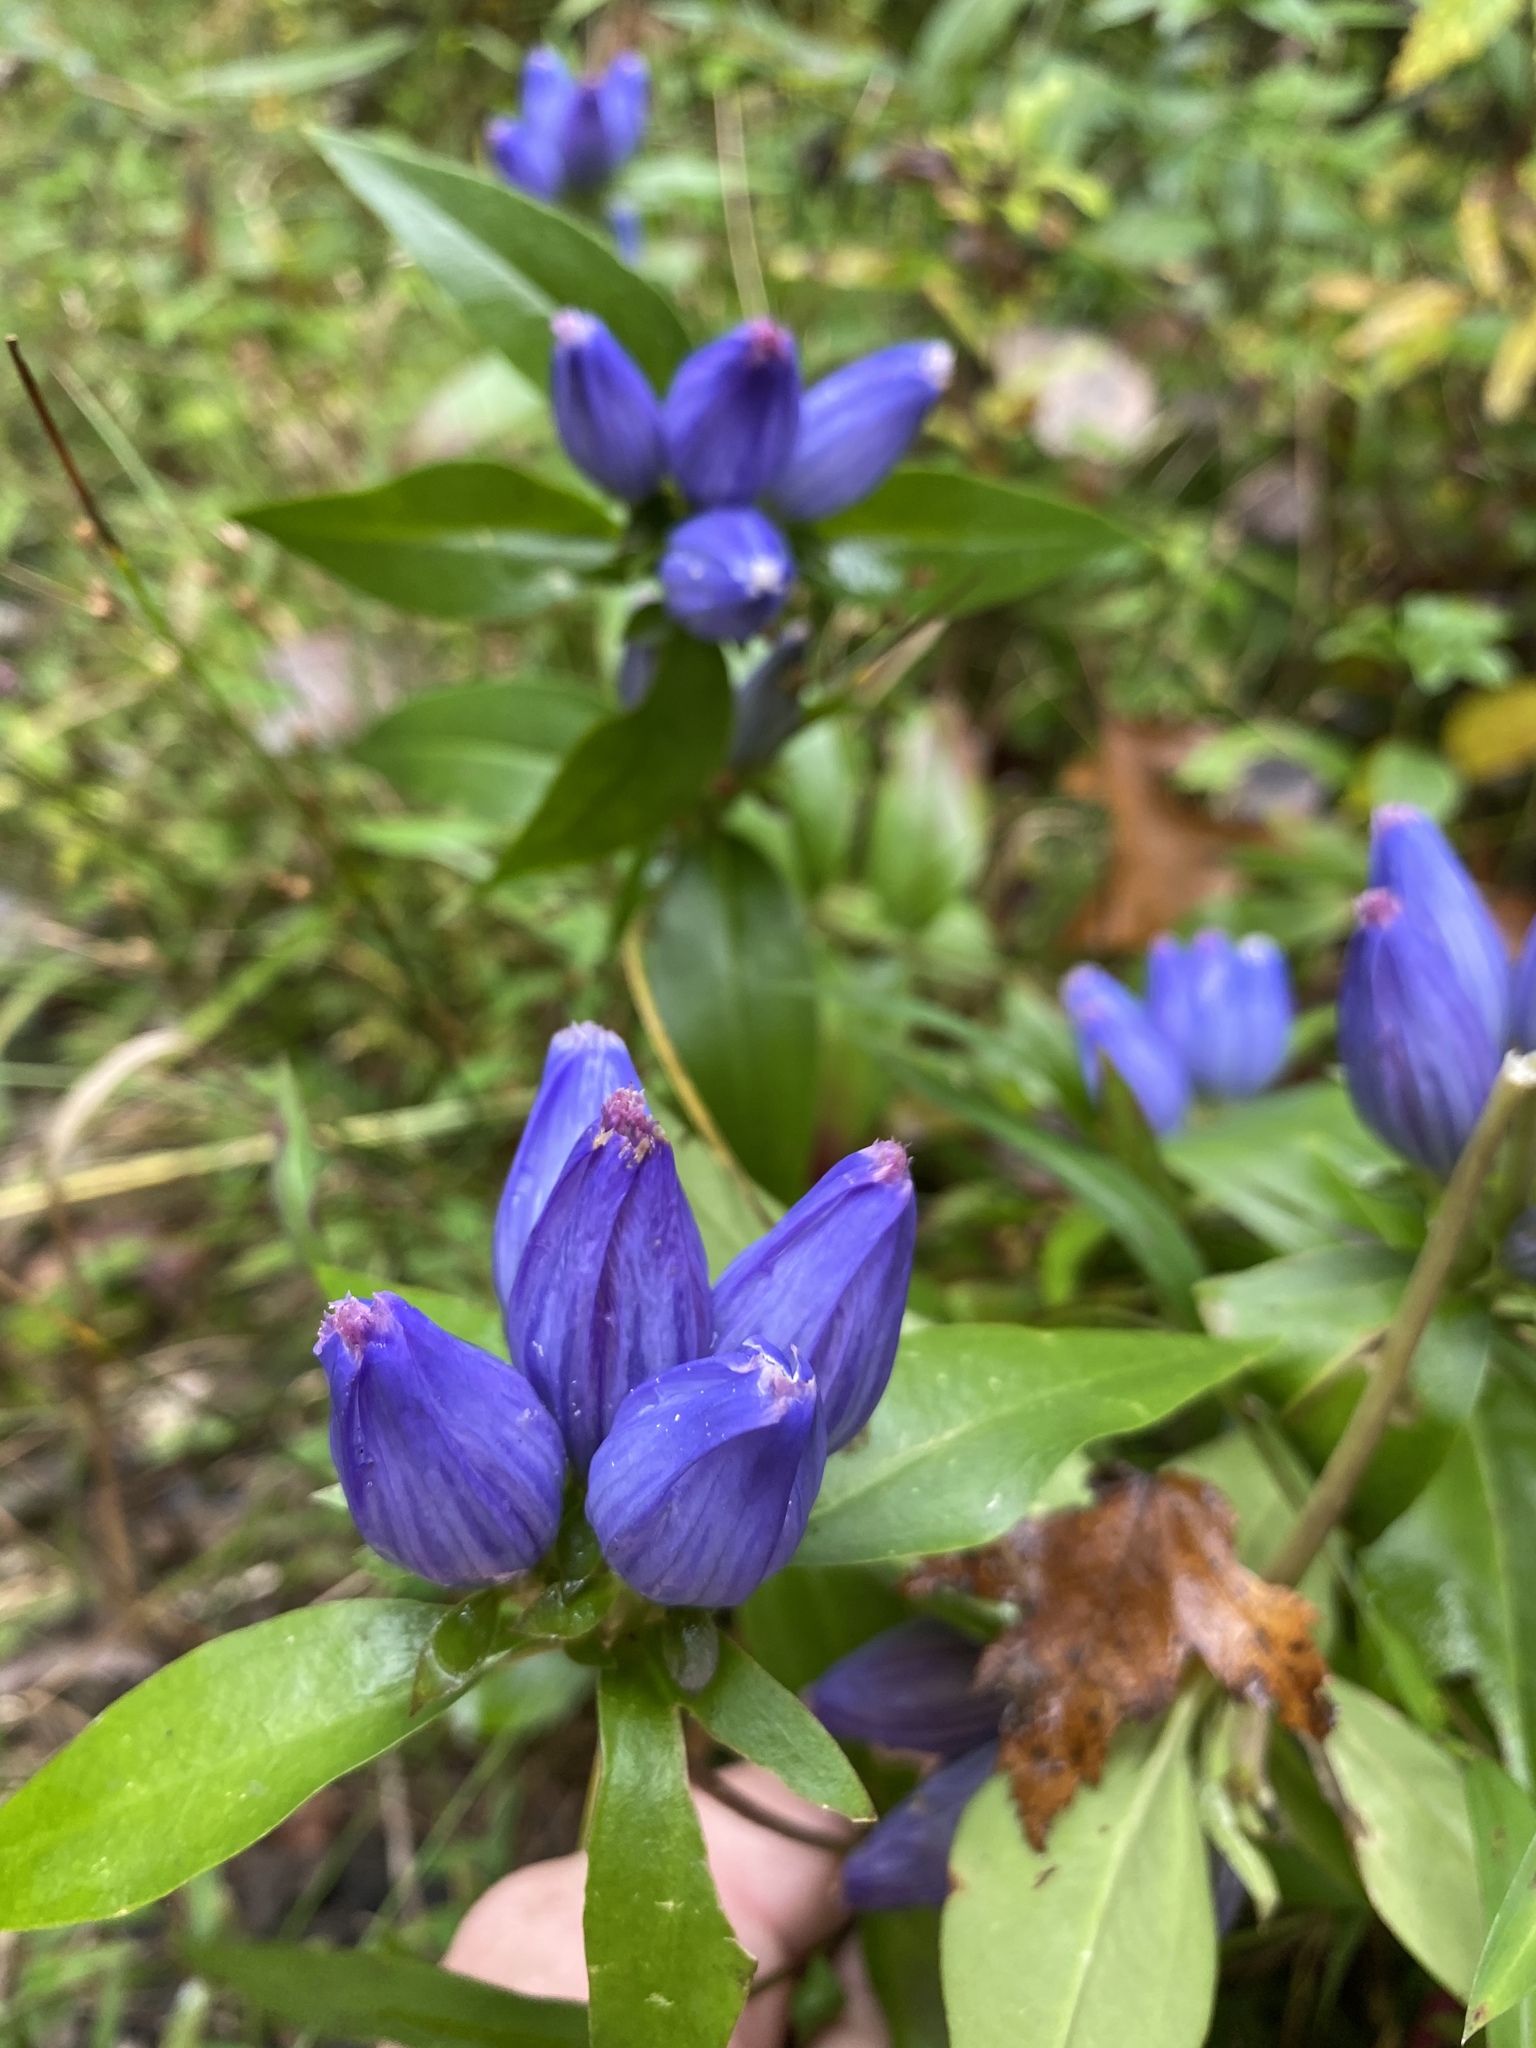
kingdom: Plantae
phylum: Tracheophyta
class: Magnoliopsida
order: Gentianales
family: Gentianaceae
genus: Gentiana
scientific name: Gentiana andrewsii
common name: Bottle gentian
